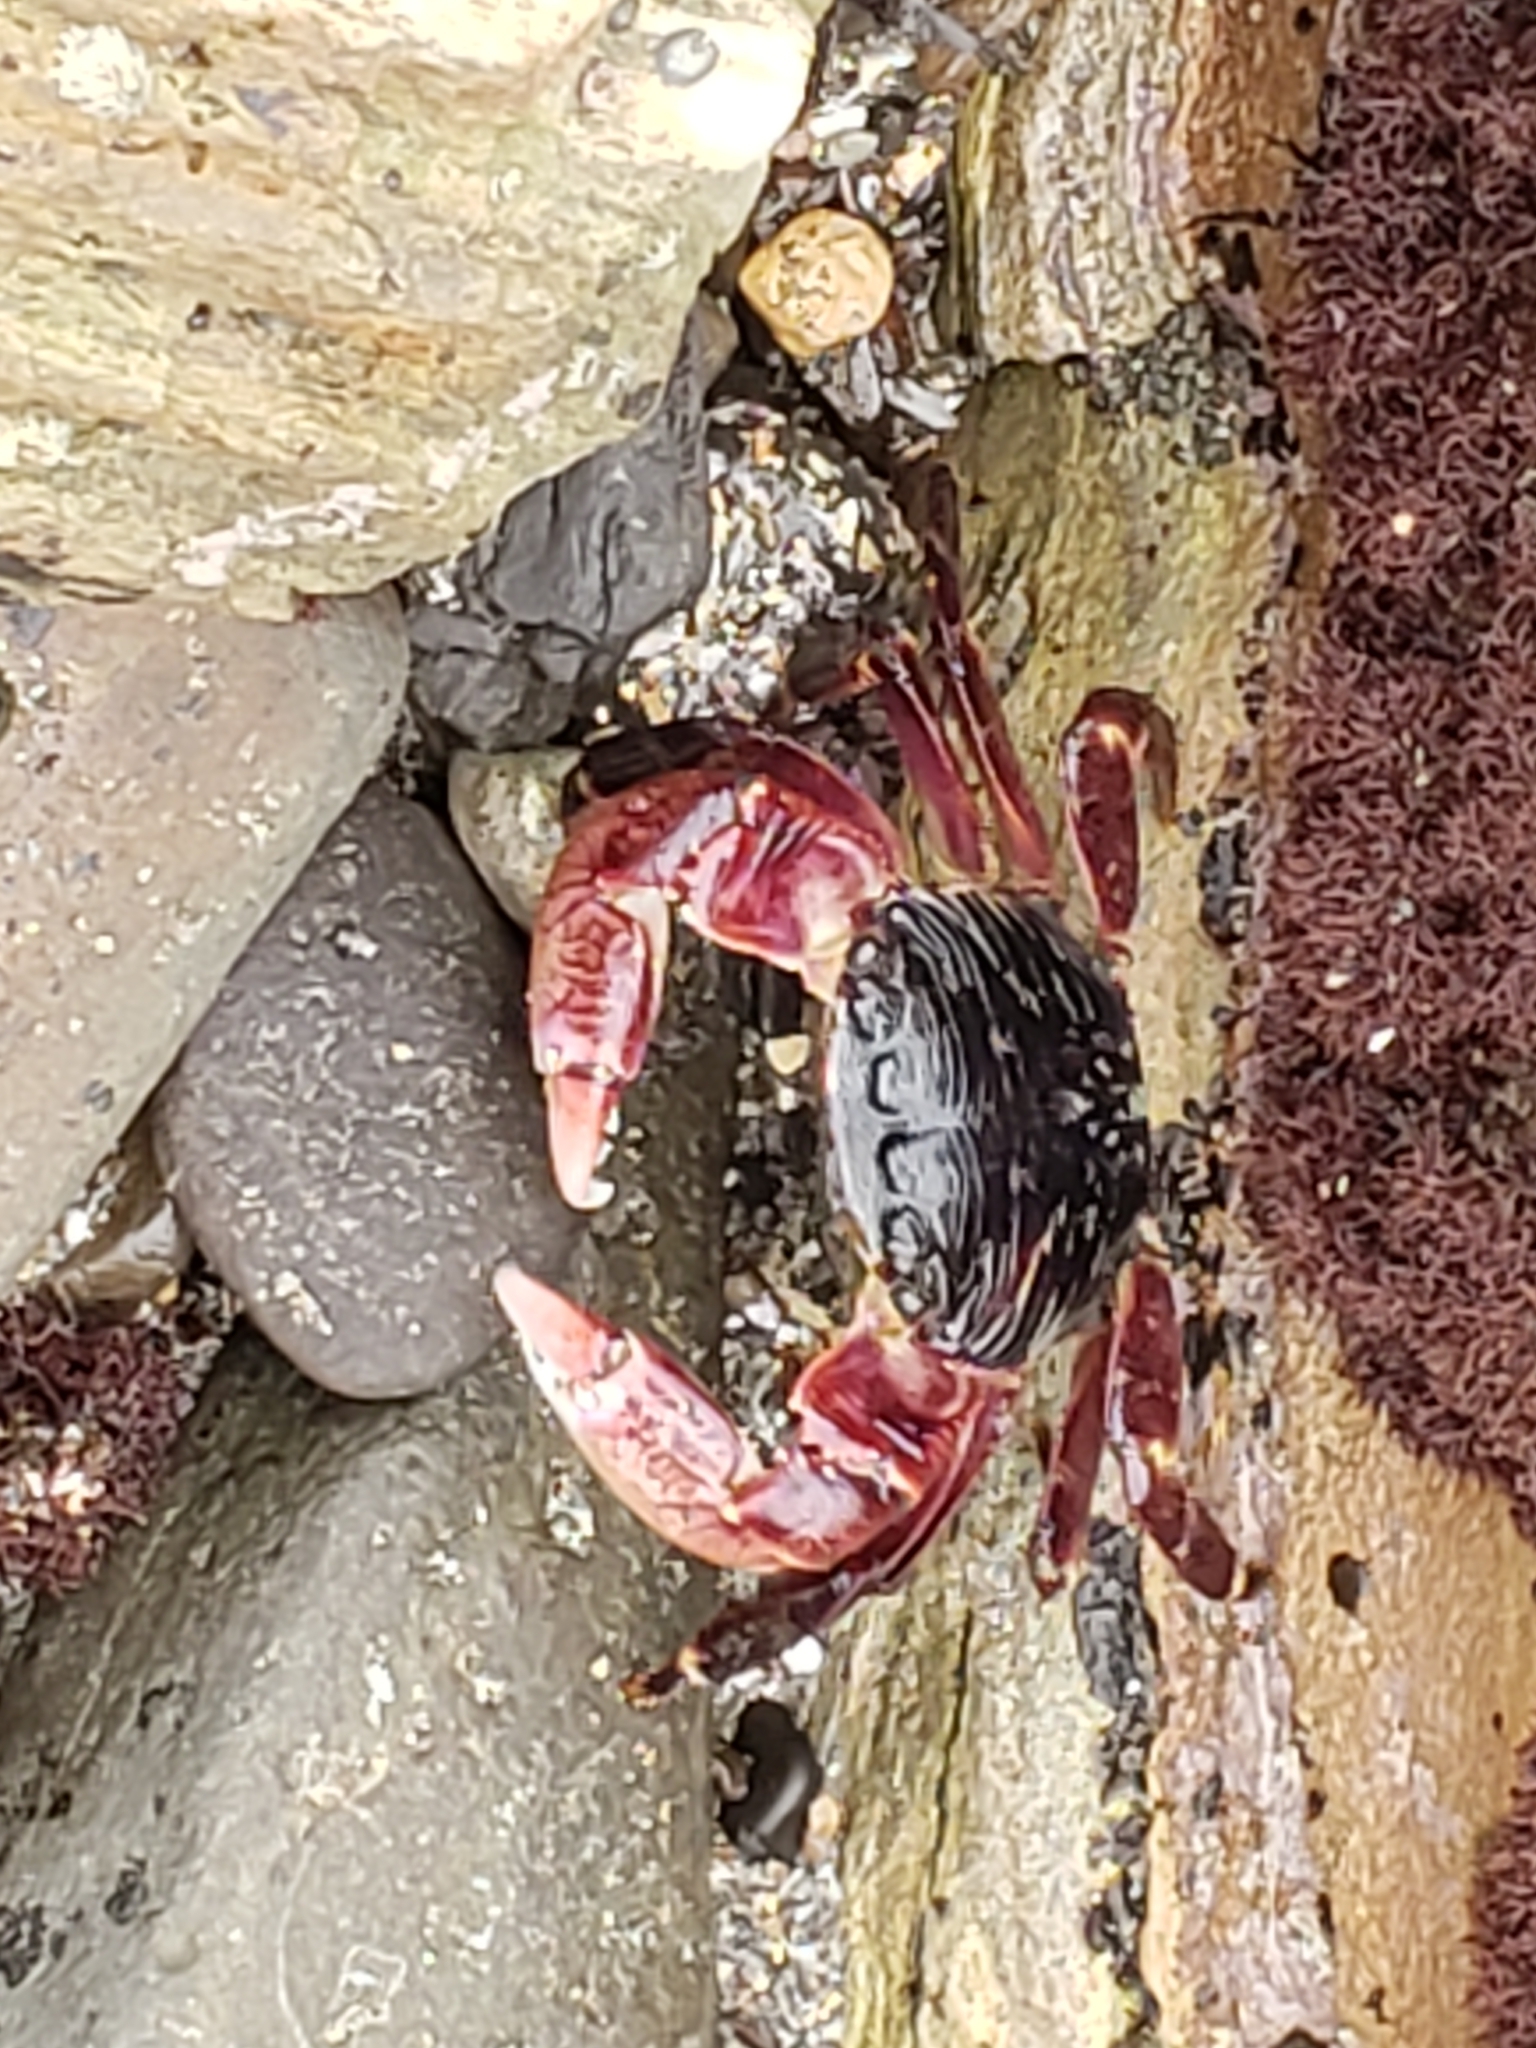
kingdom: Animalia
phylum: Arthropoda
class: Malacostraca
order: Decapoda
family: Grapsidae
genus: Pachygrapsus
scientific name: Pachygrapsus crassipes
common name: Striped shore crab
